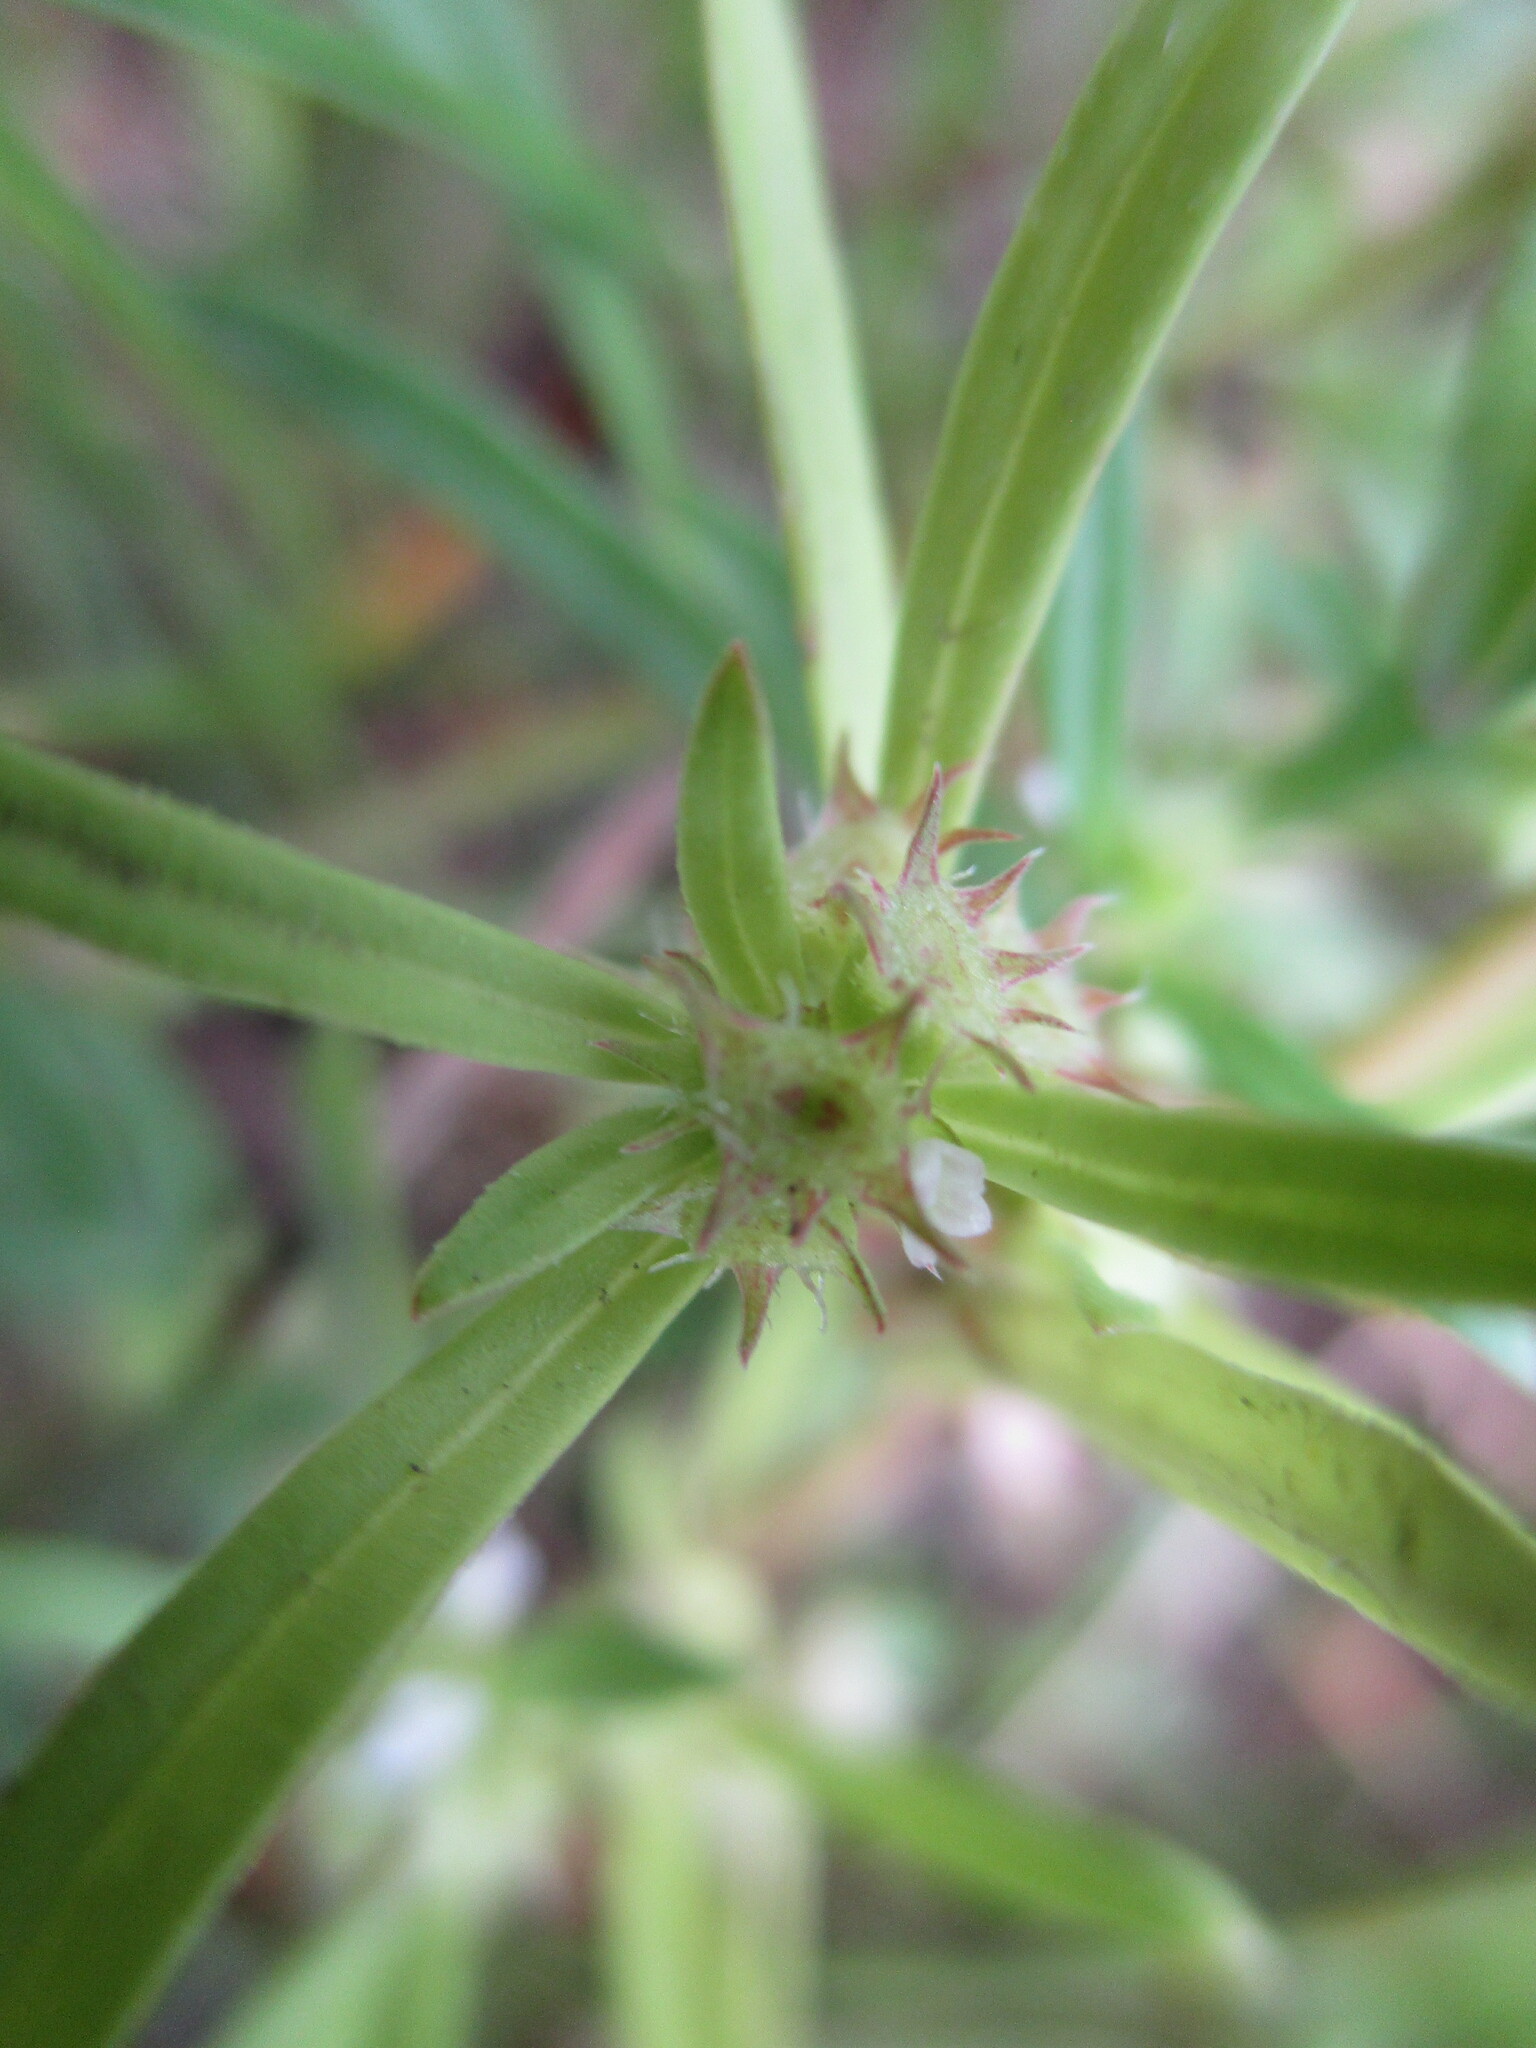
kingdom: Plantae
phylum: Tracheophyta
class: Magnoliopsida
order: Gentianales
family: Rubiaceae
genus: Oldenlandia
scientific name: Oldenlandia capensis
